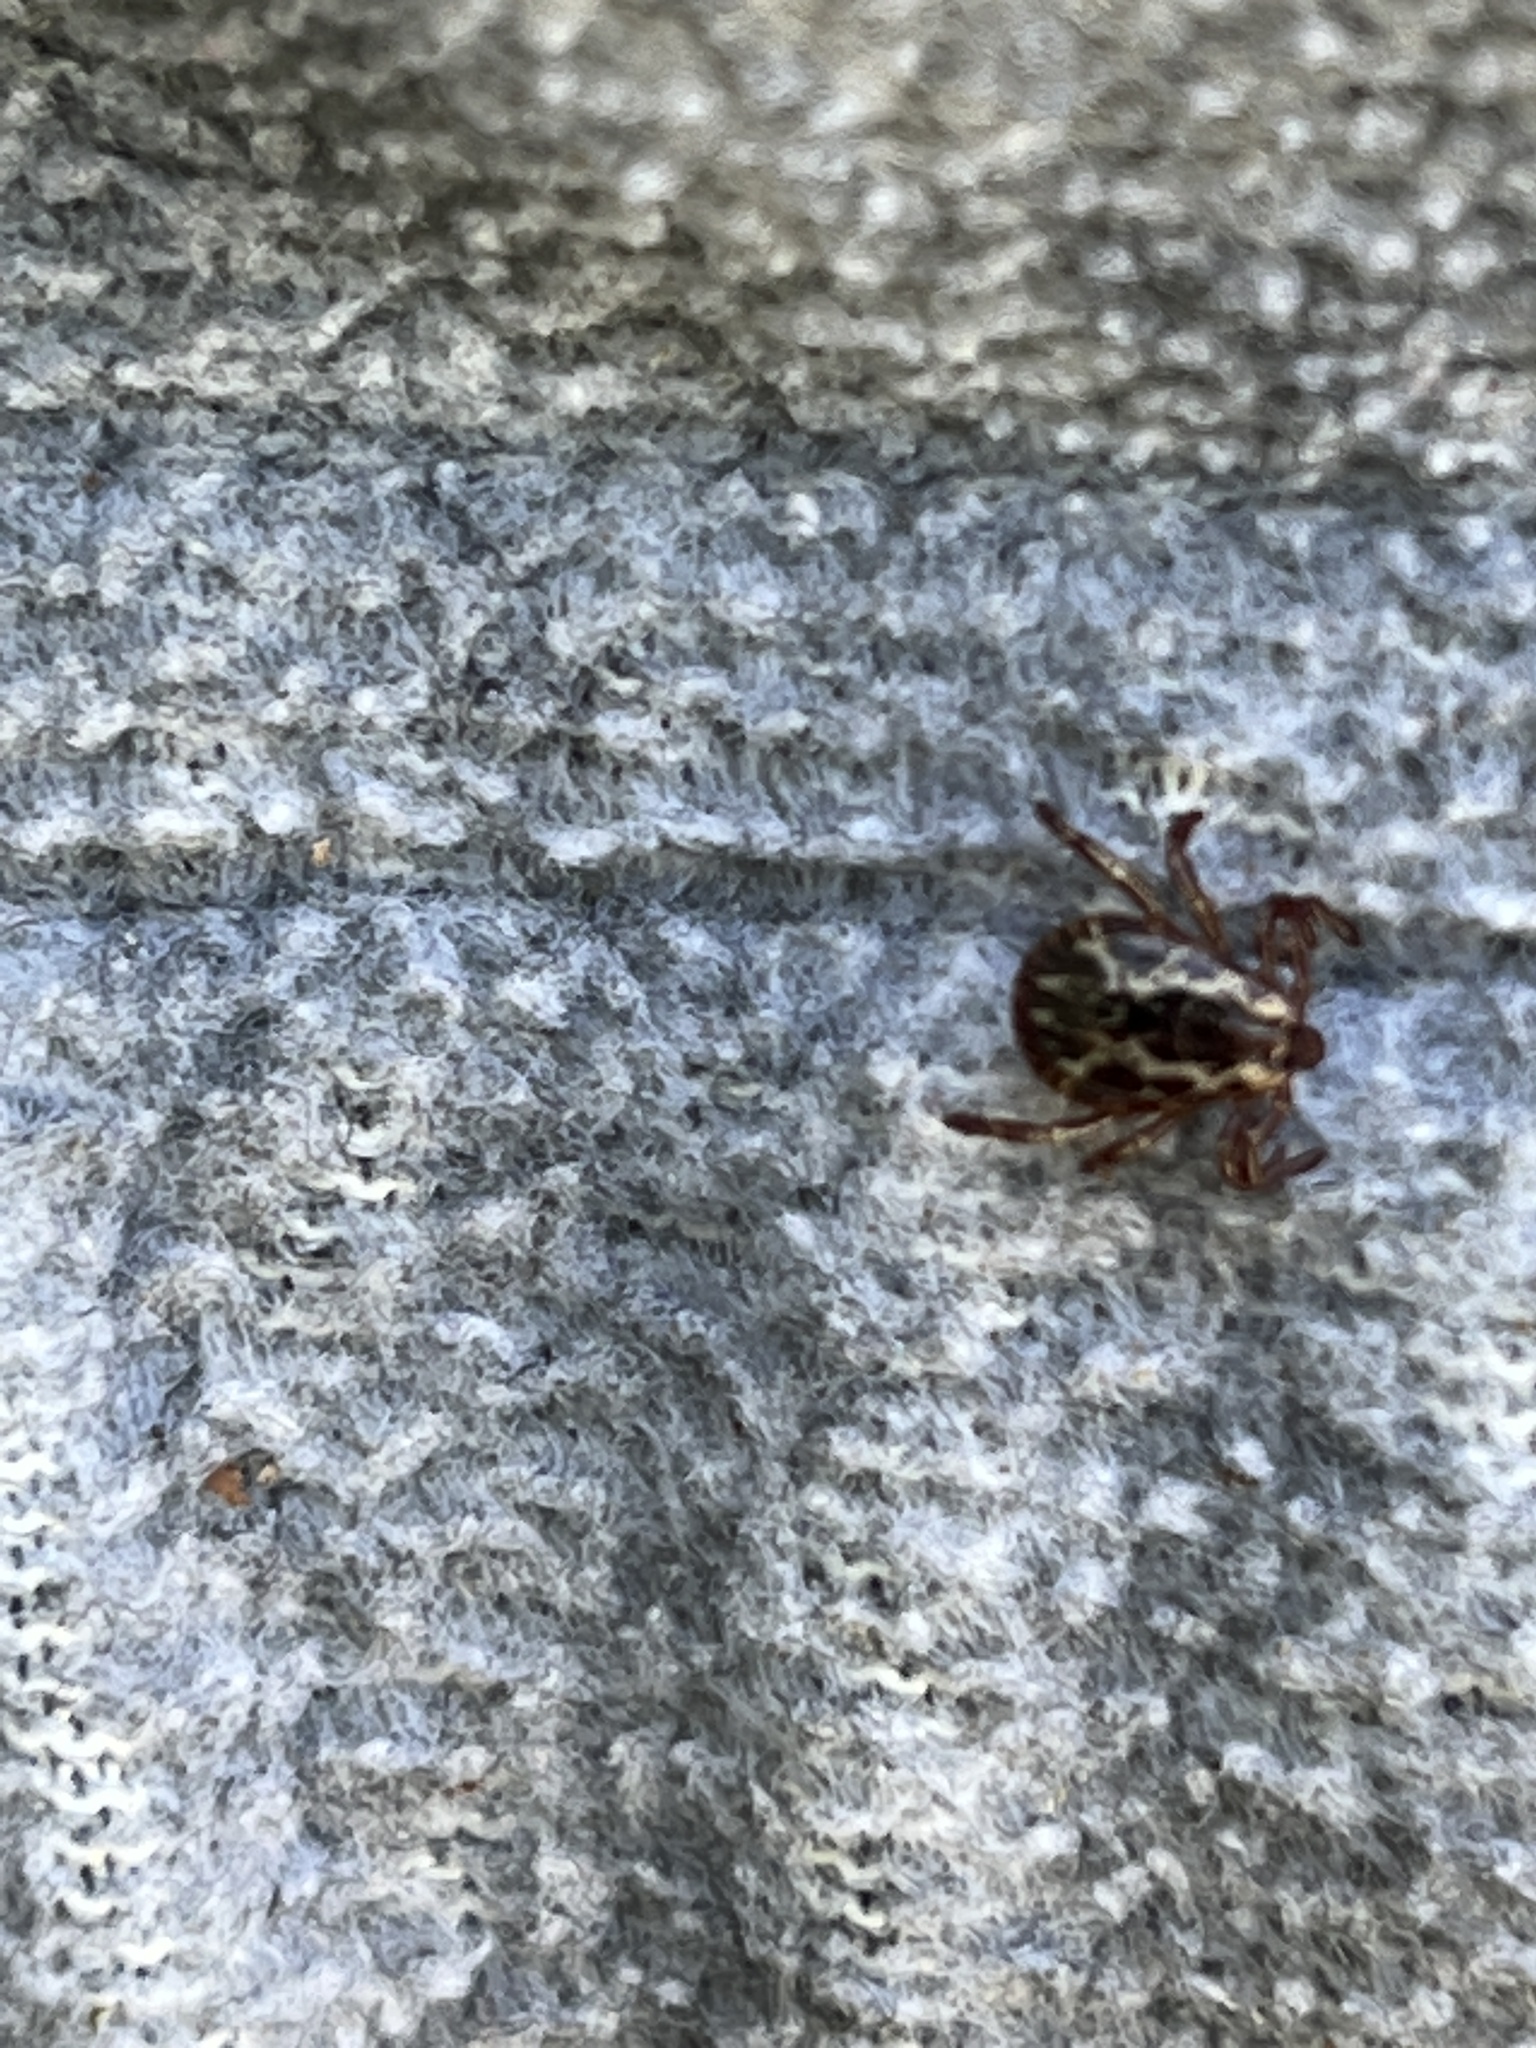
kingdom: Animalia
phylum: Arthropoda
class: Arachnida
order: Ixodida
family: Ixodidae
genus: Dermacentor
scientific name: Dermacentor variabilis
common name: American dog tick
